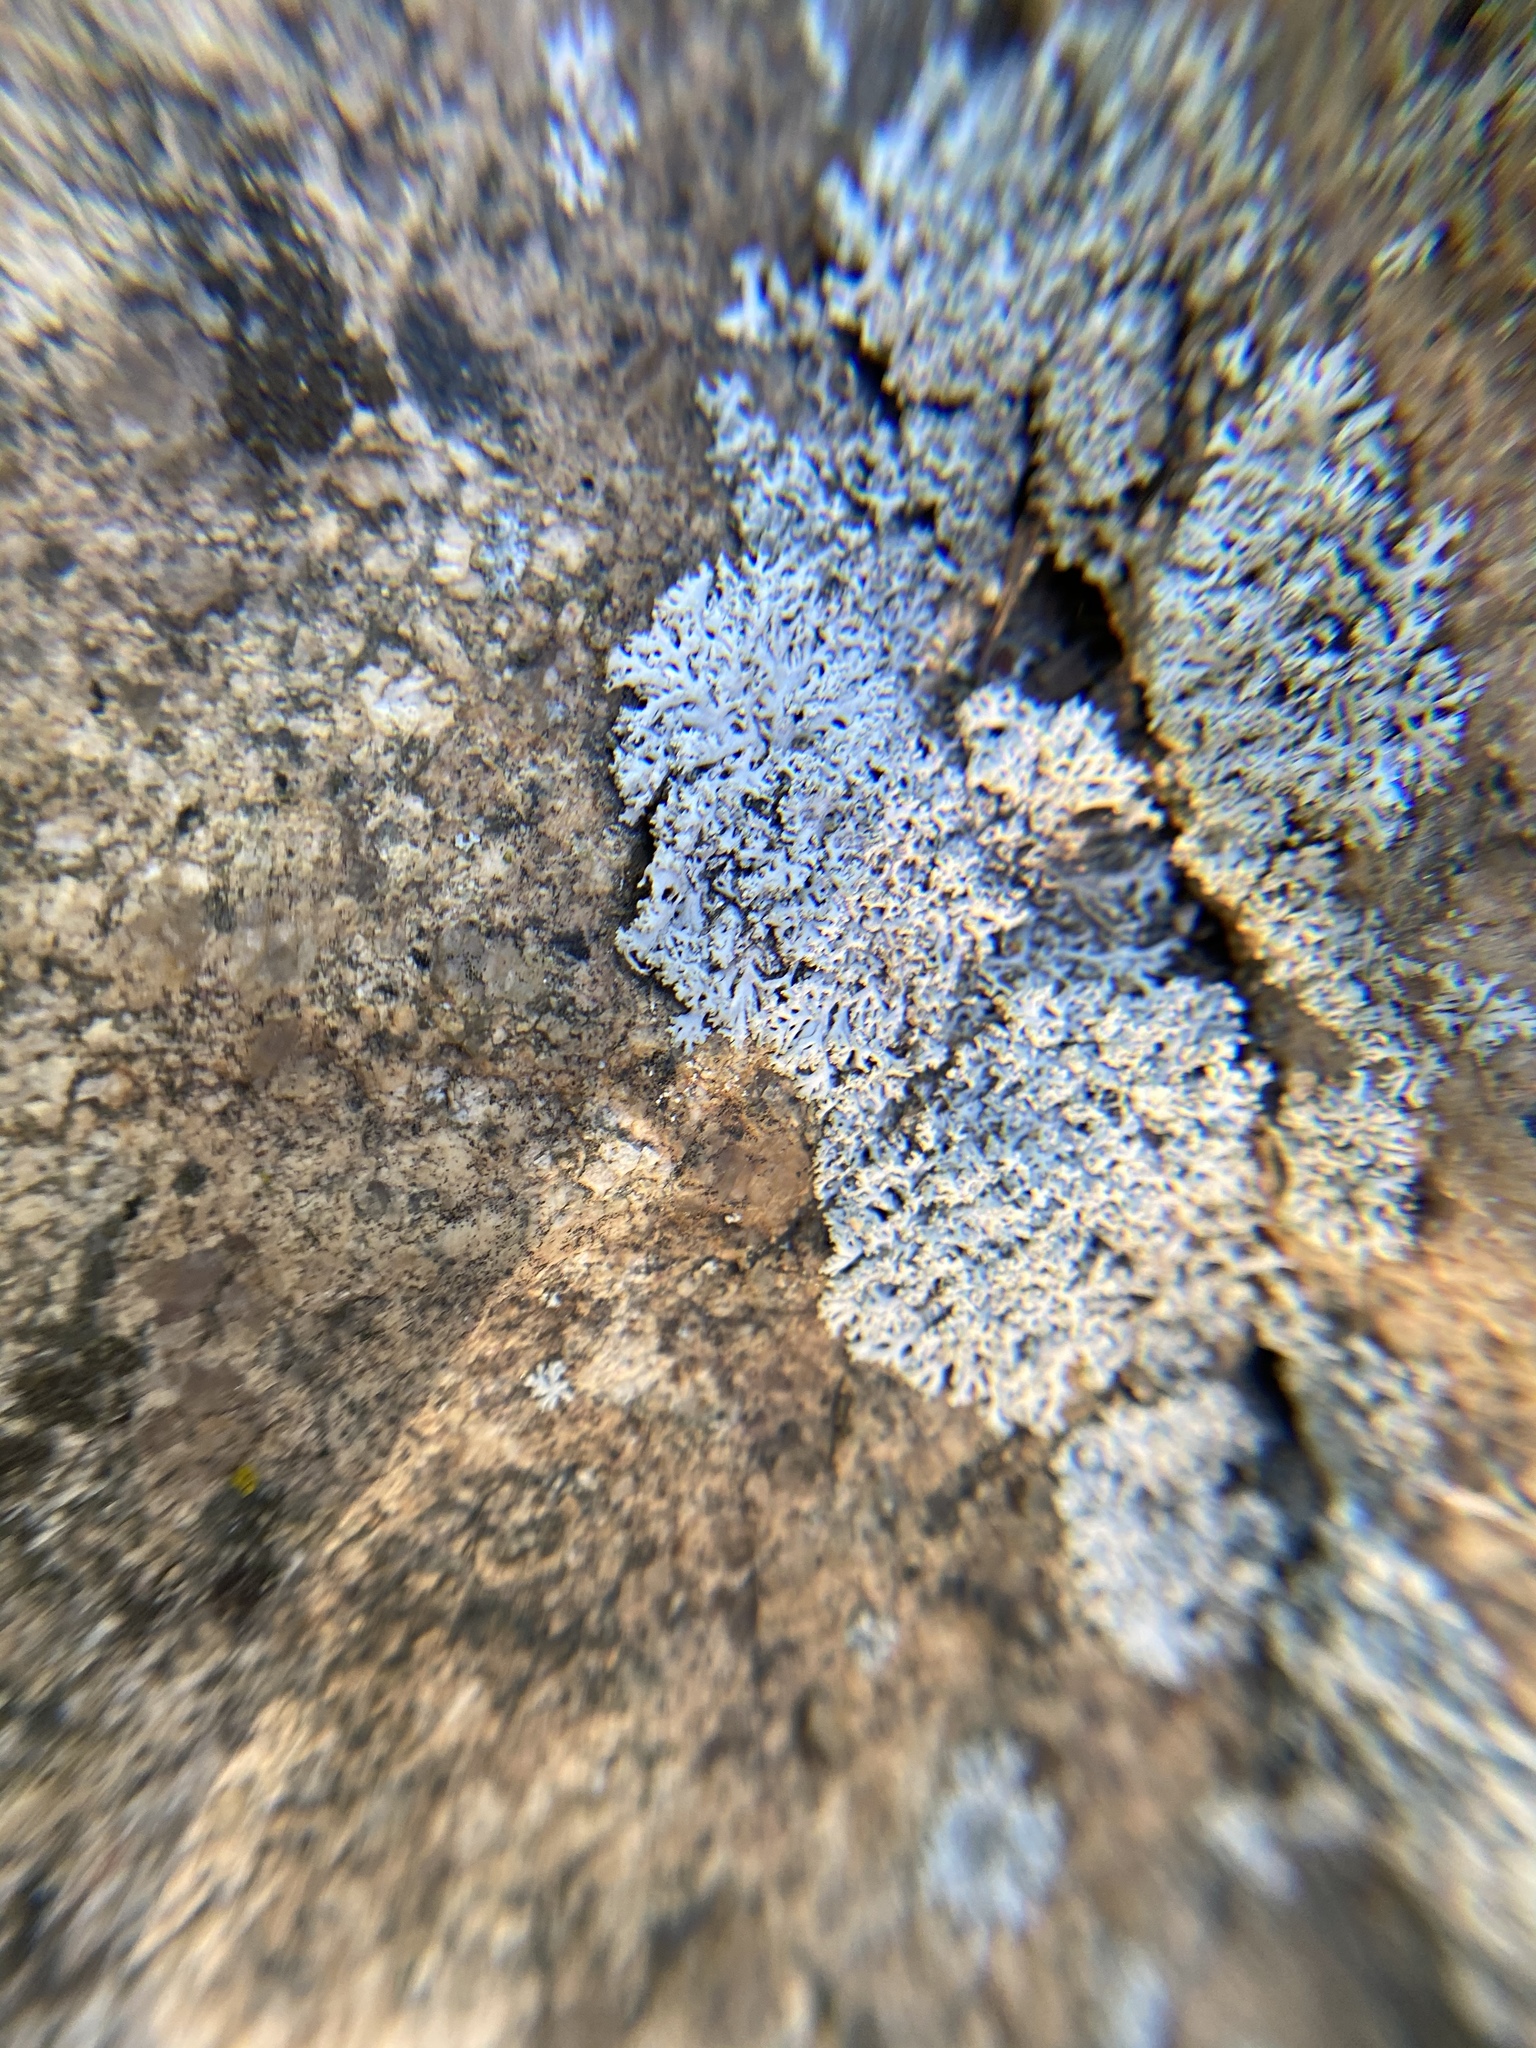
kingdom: Fungi
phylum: Ascomycota
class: Lecanoromycetes
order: Caliciales
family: Physciaceae
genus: Physcia
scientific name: Physcia thomsoniana
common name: Thomson's rosette lichen
